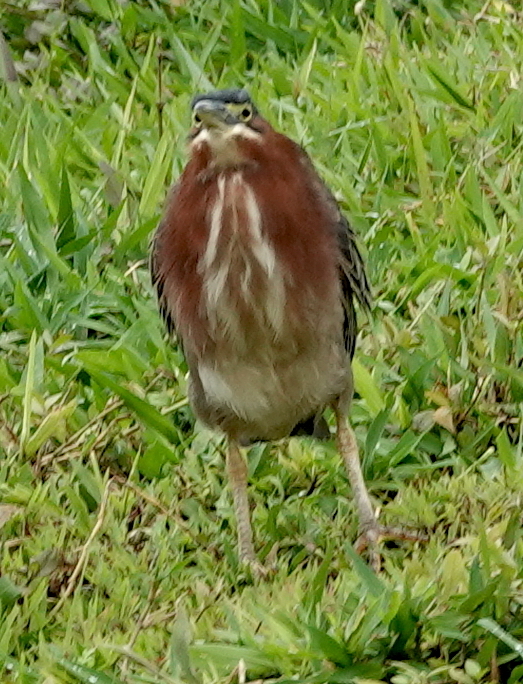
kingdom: Animalia
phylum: Chordata
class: Aves
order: Pelecaniformes
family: Ardeidae
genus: Butorides
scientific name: Butorides virescens
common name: Green heron
